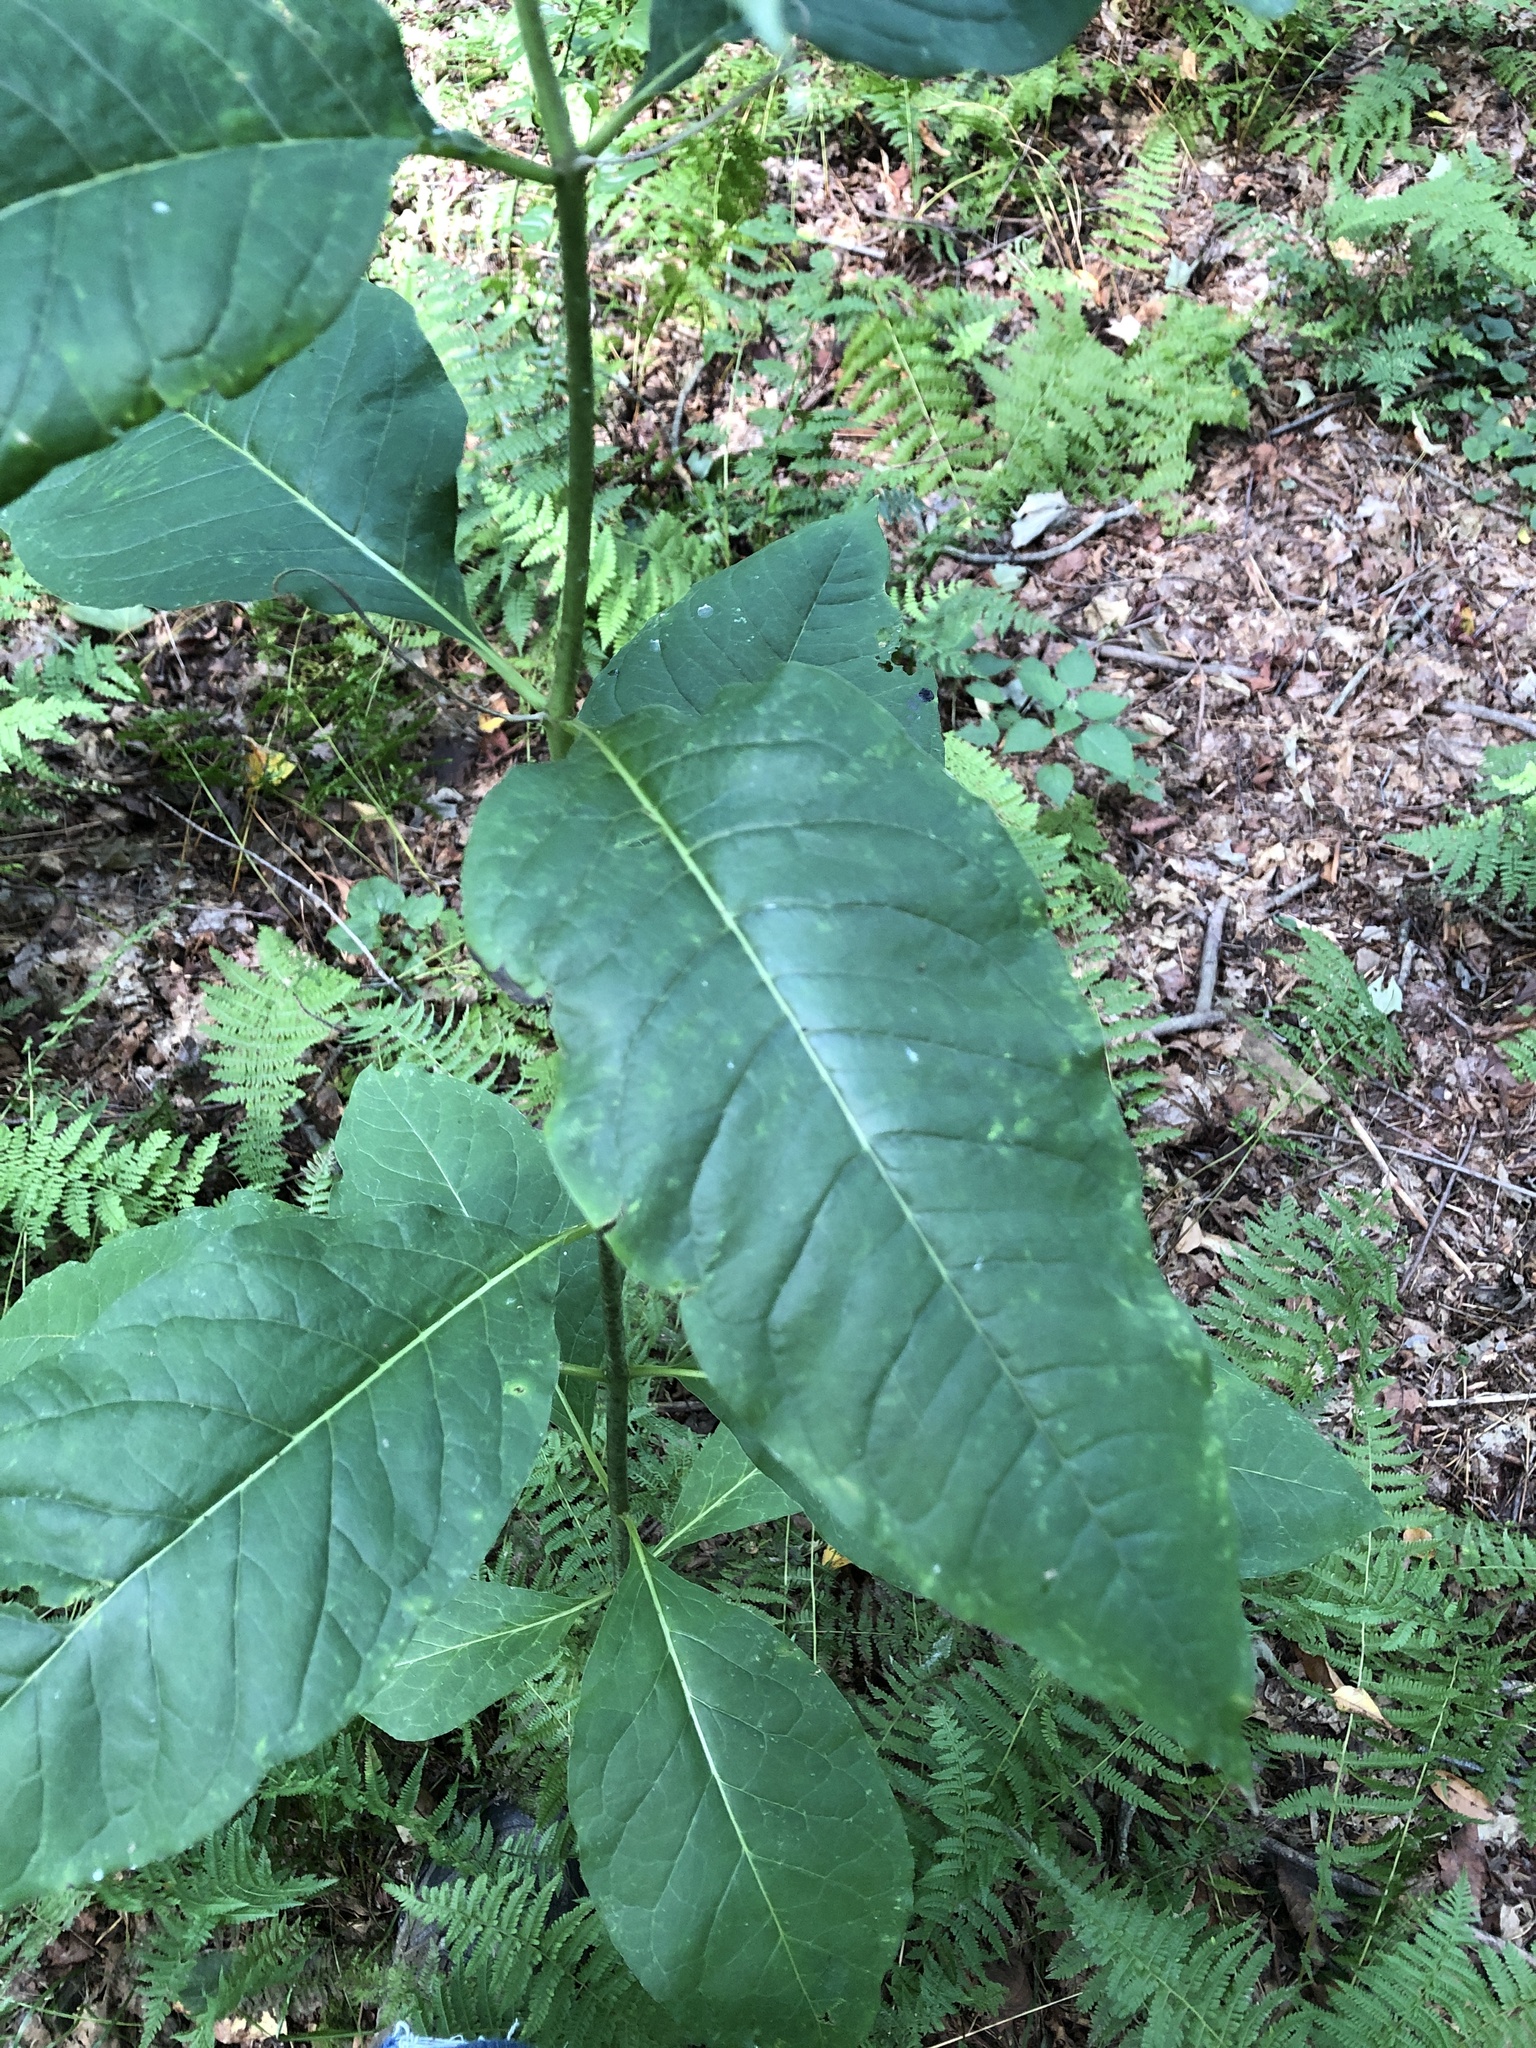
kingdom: Plantae
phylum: Tracheophyta
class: Magnoliopsida
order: Gentianales
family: Apocynaceae
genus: Asclepias
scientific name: Asclepias exaltata
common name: Poke milkweed
